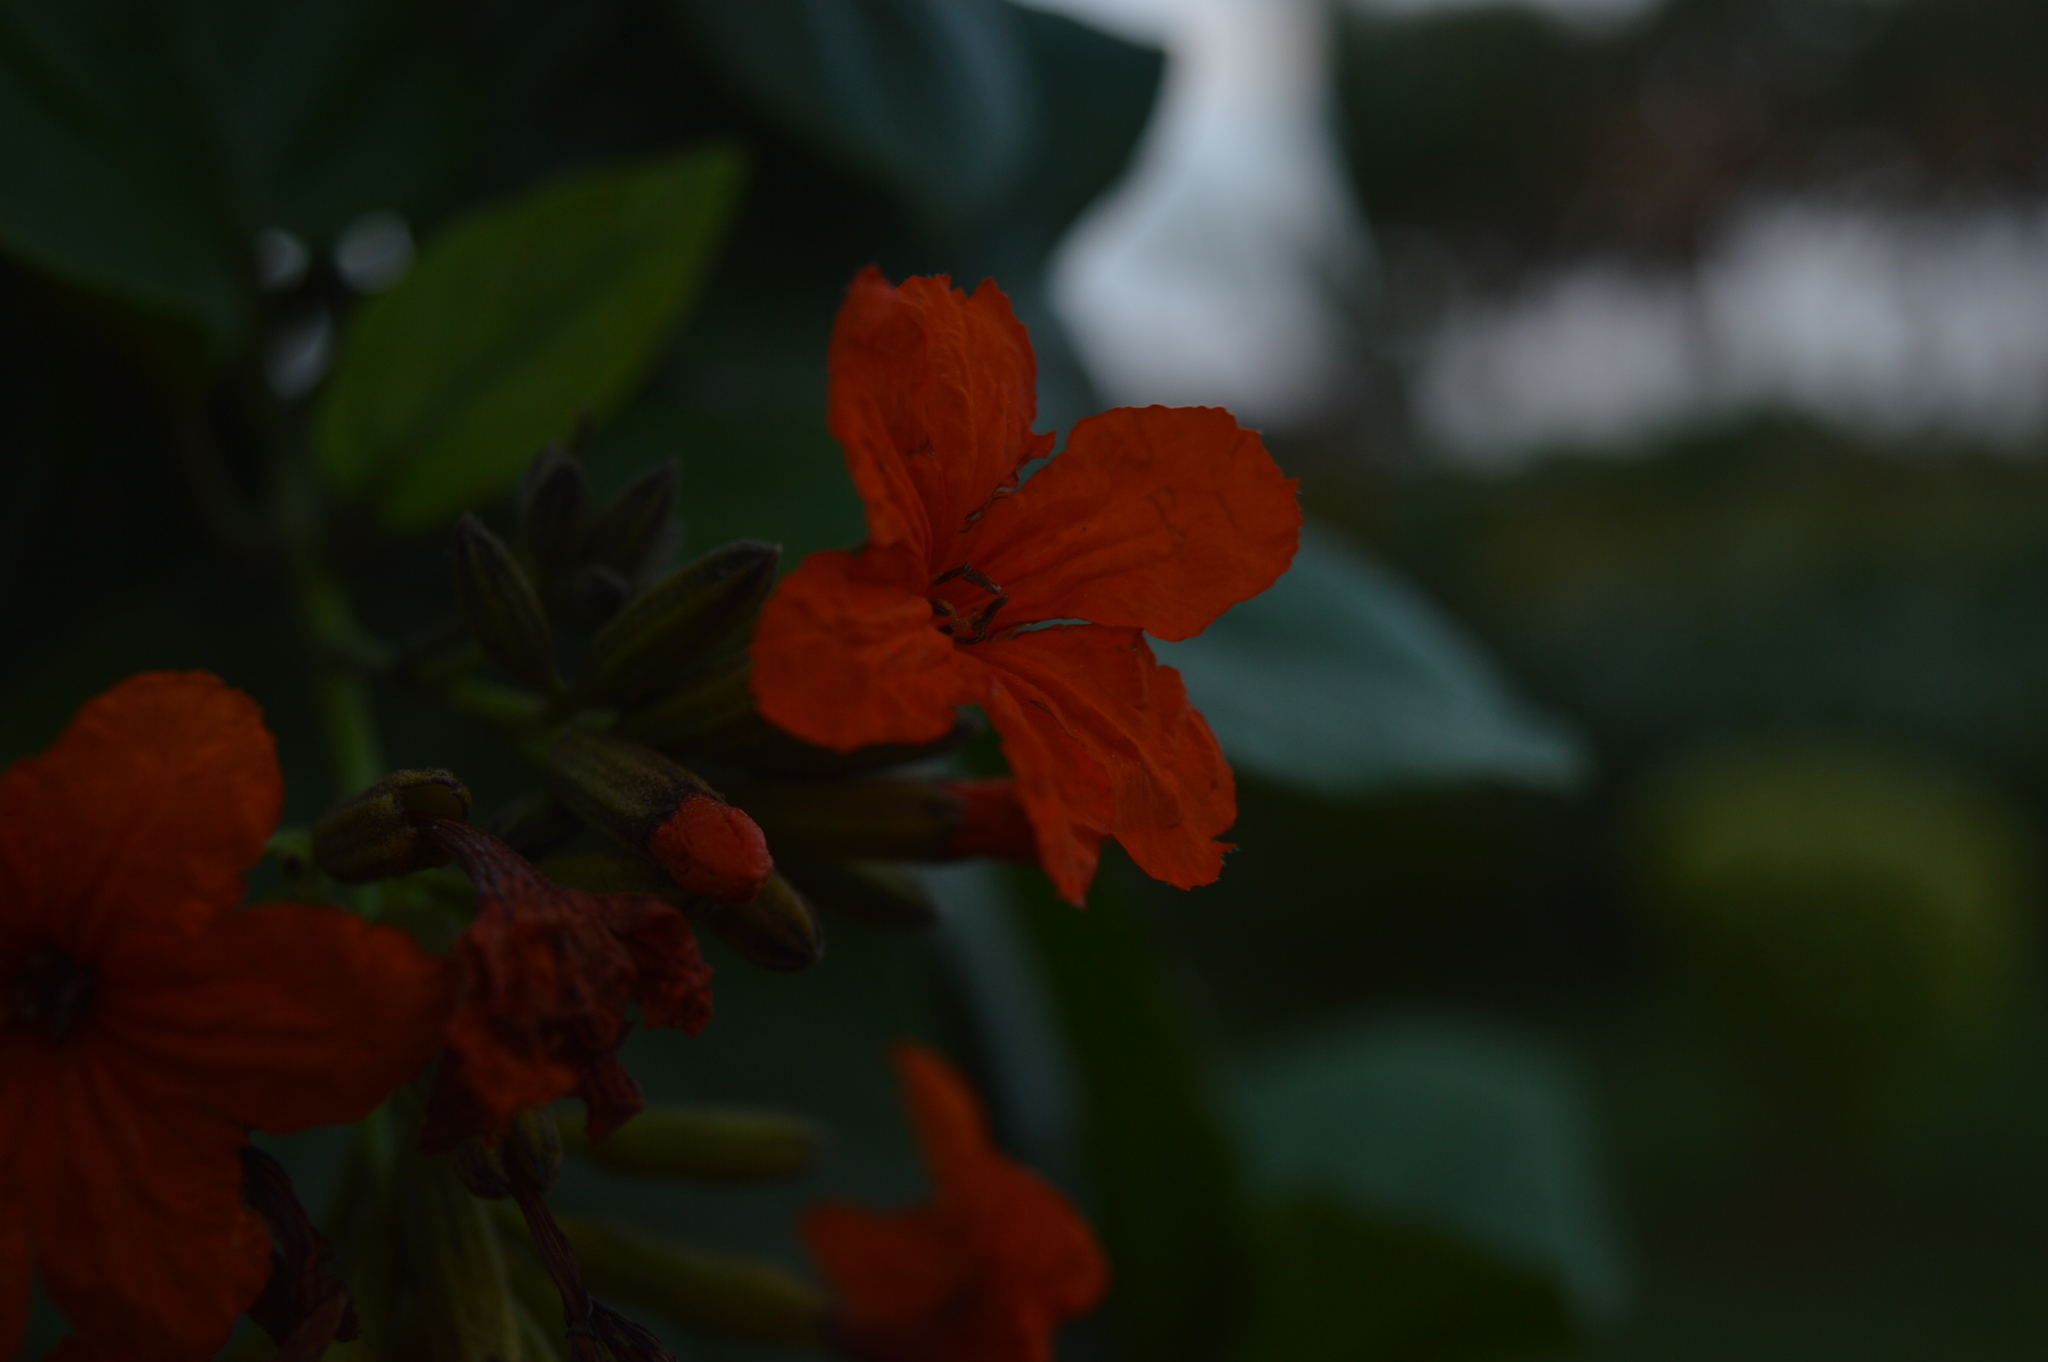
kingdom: Plantae
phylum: Tracheophyta
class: Magnoliopsida
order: Boraginales
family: Cordiaceae
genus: Cordia
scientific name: Cordia sebestena
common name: Largeleaf geigertree
